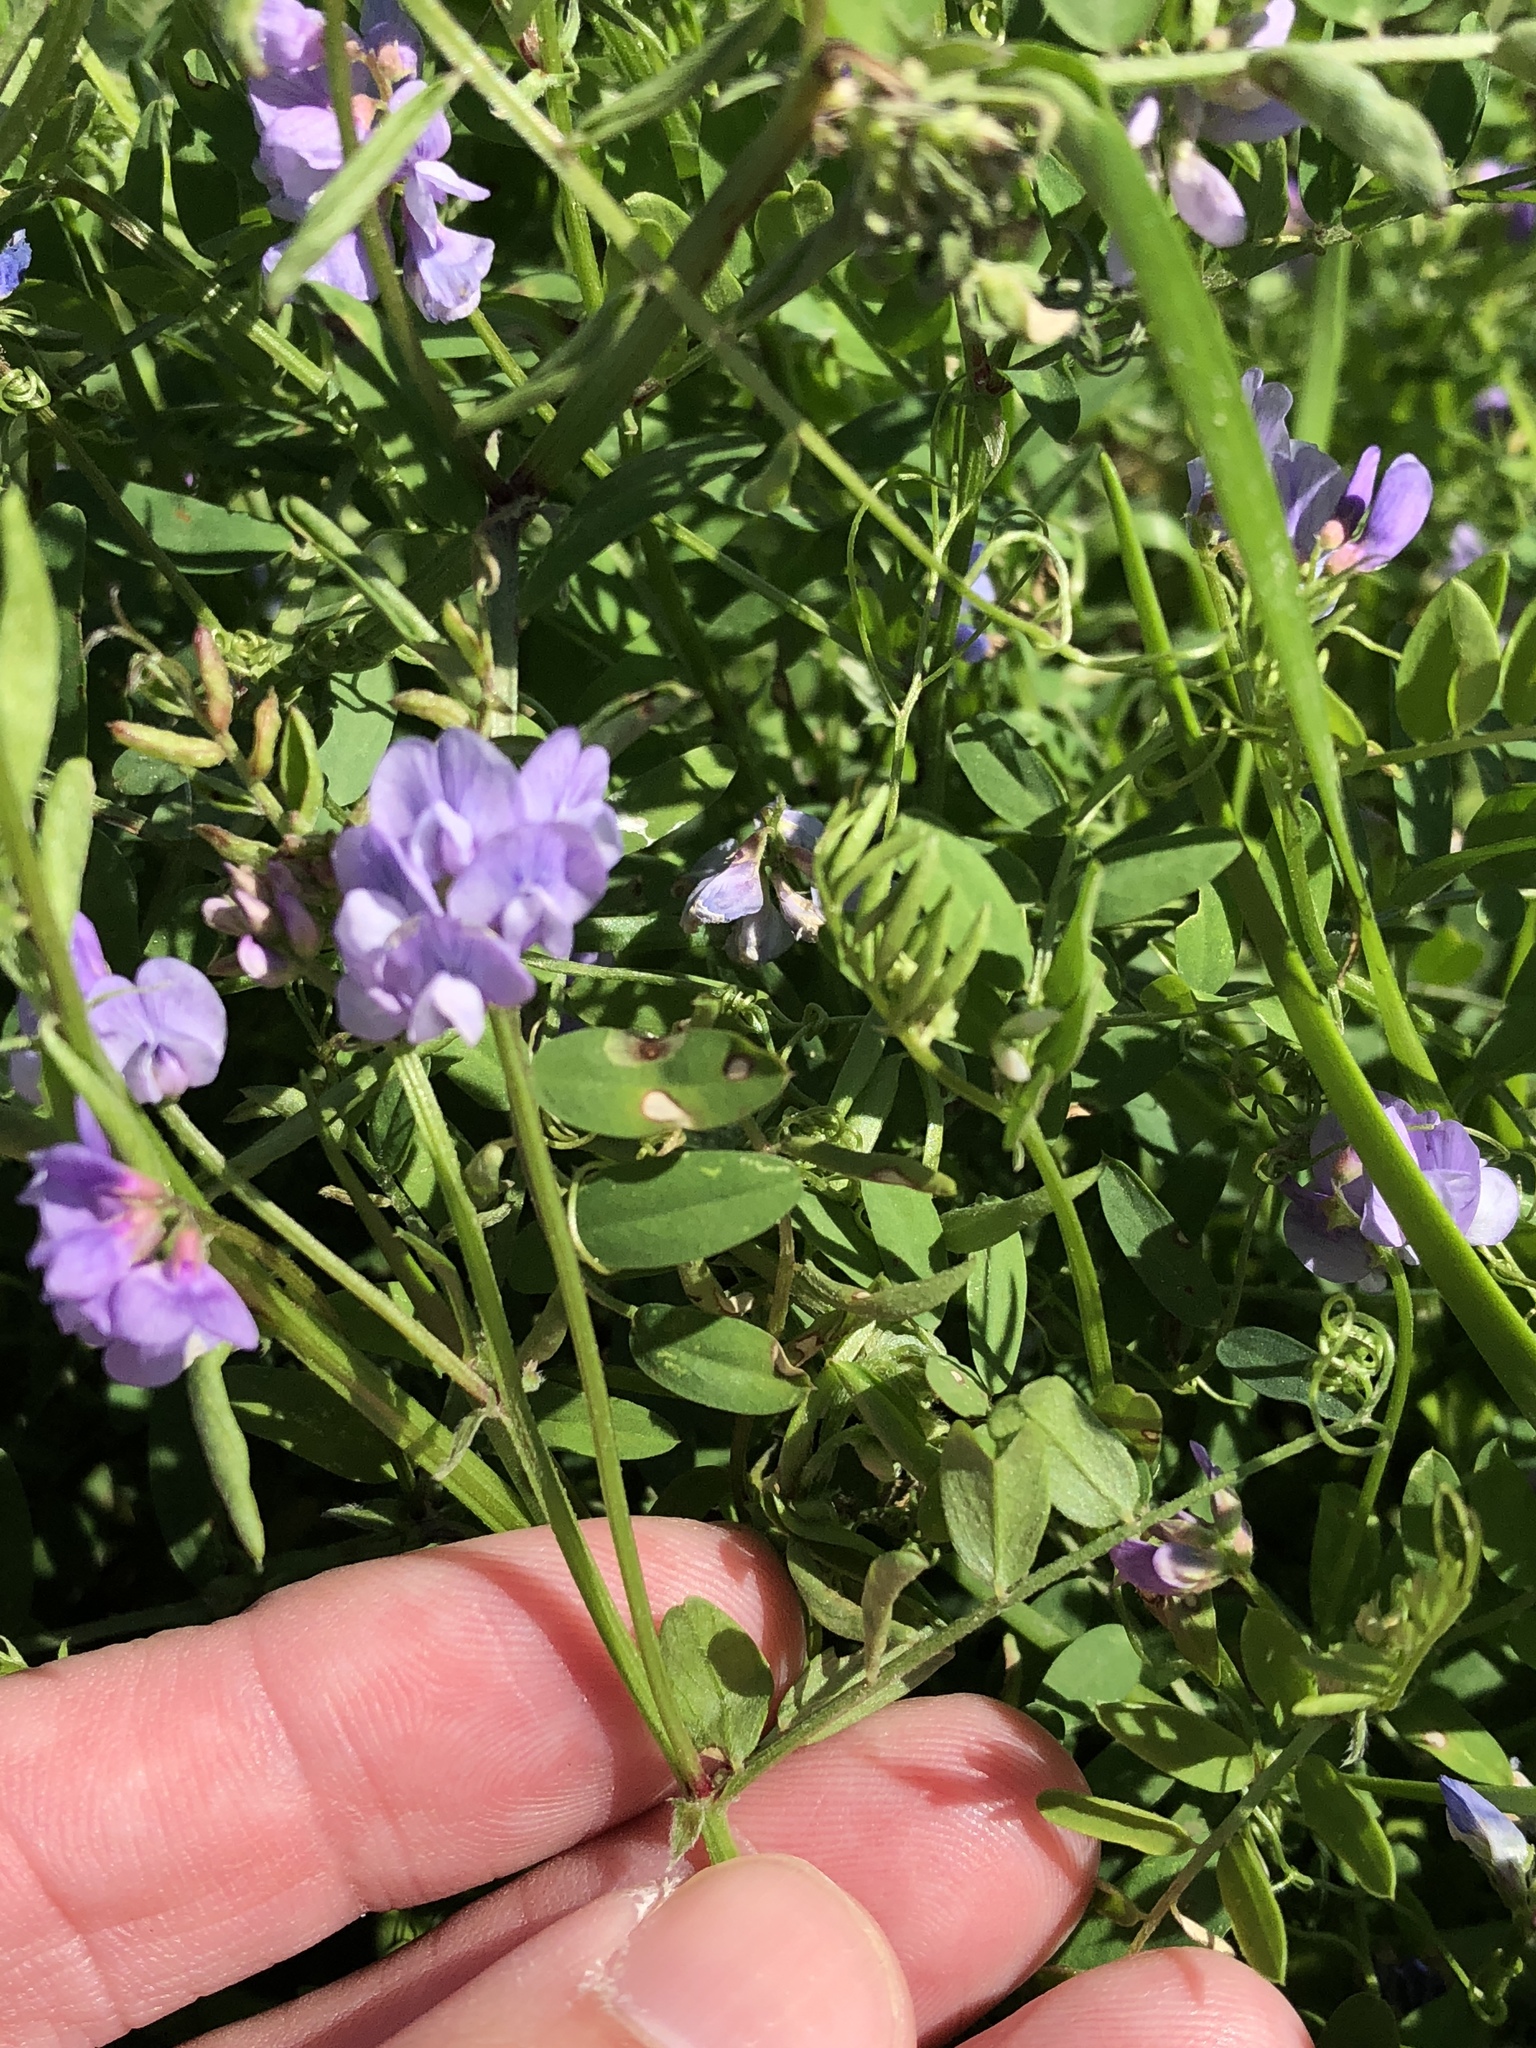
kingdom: Plantae
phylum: Tracheophyta
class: Magnoliopsida
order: Fabales
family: Fabaceae
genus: Vicia
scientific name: Vicia ludoviciana
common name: Louisiana vetch
